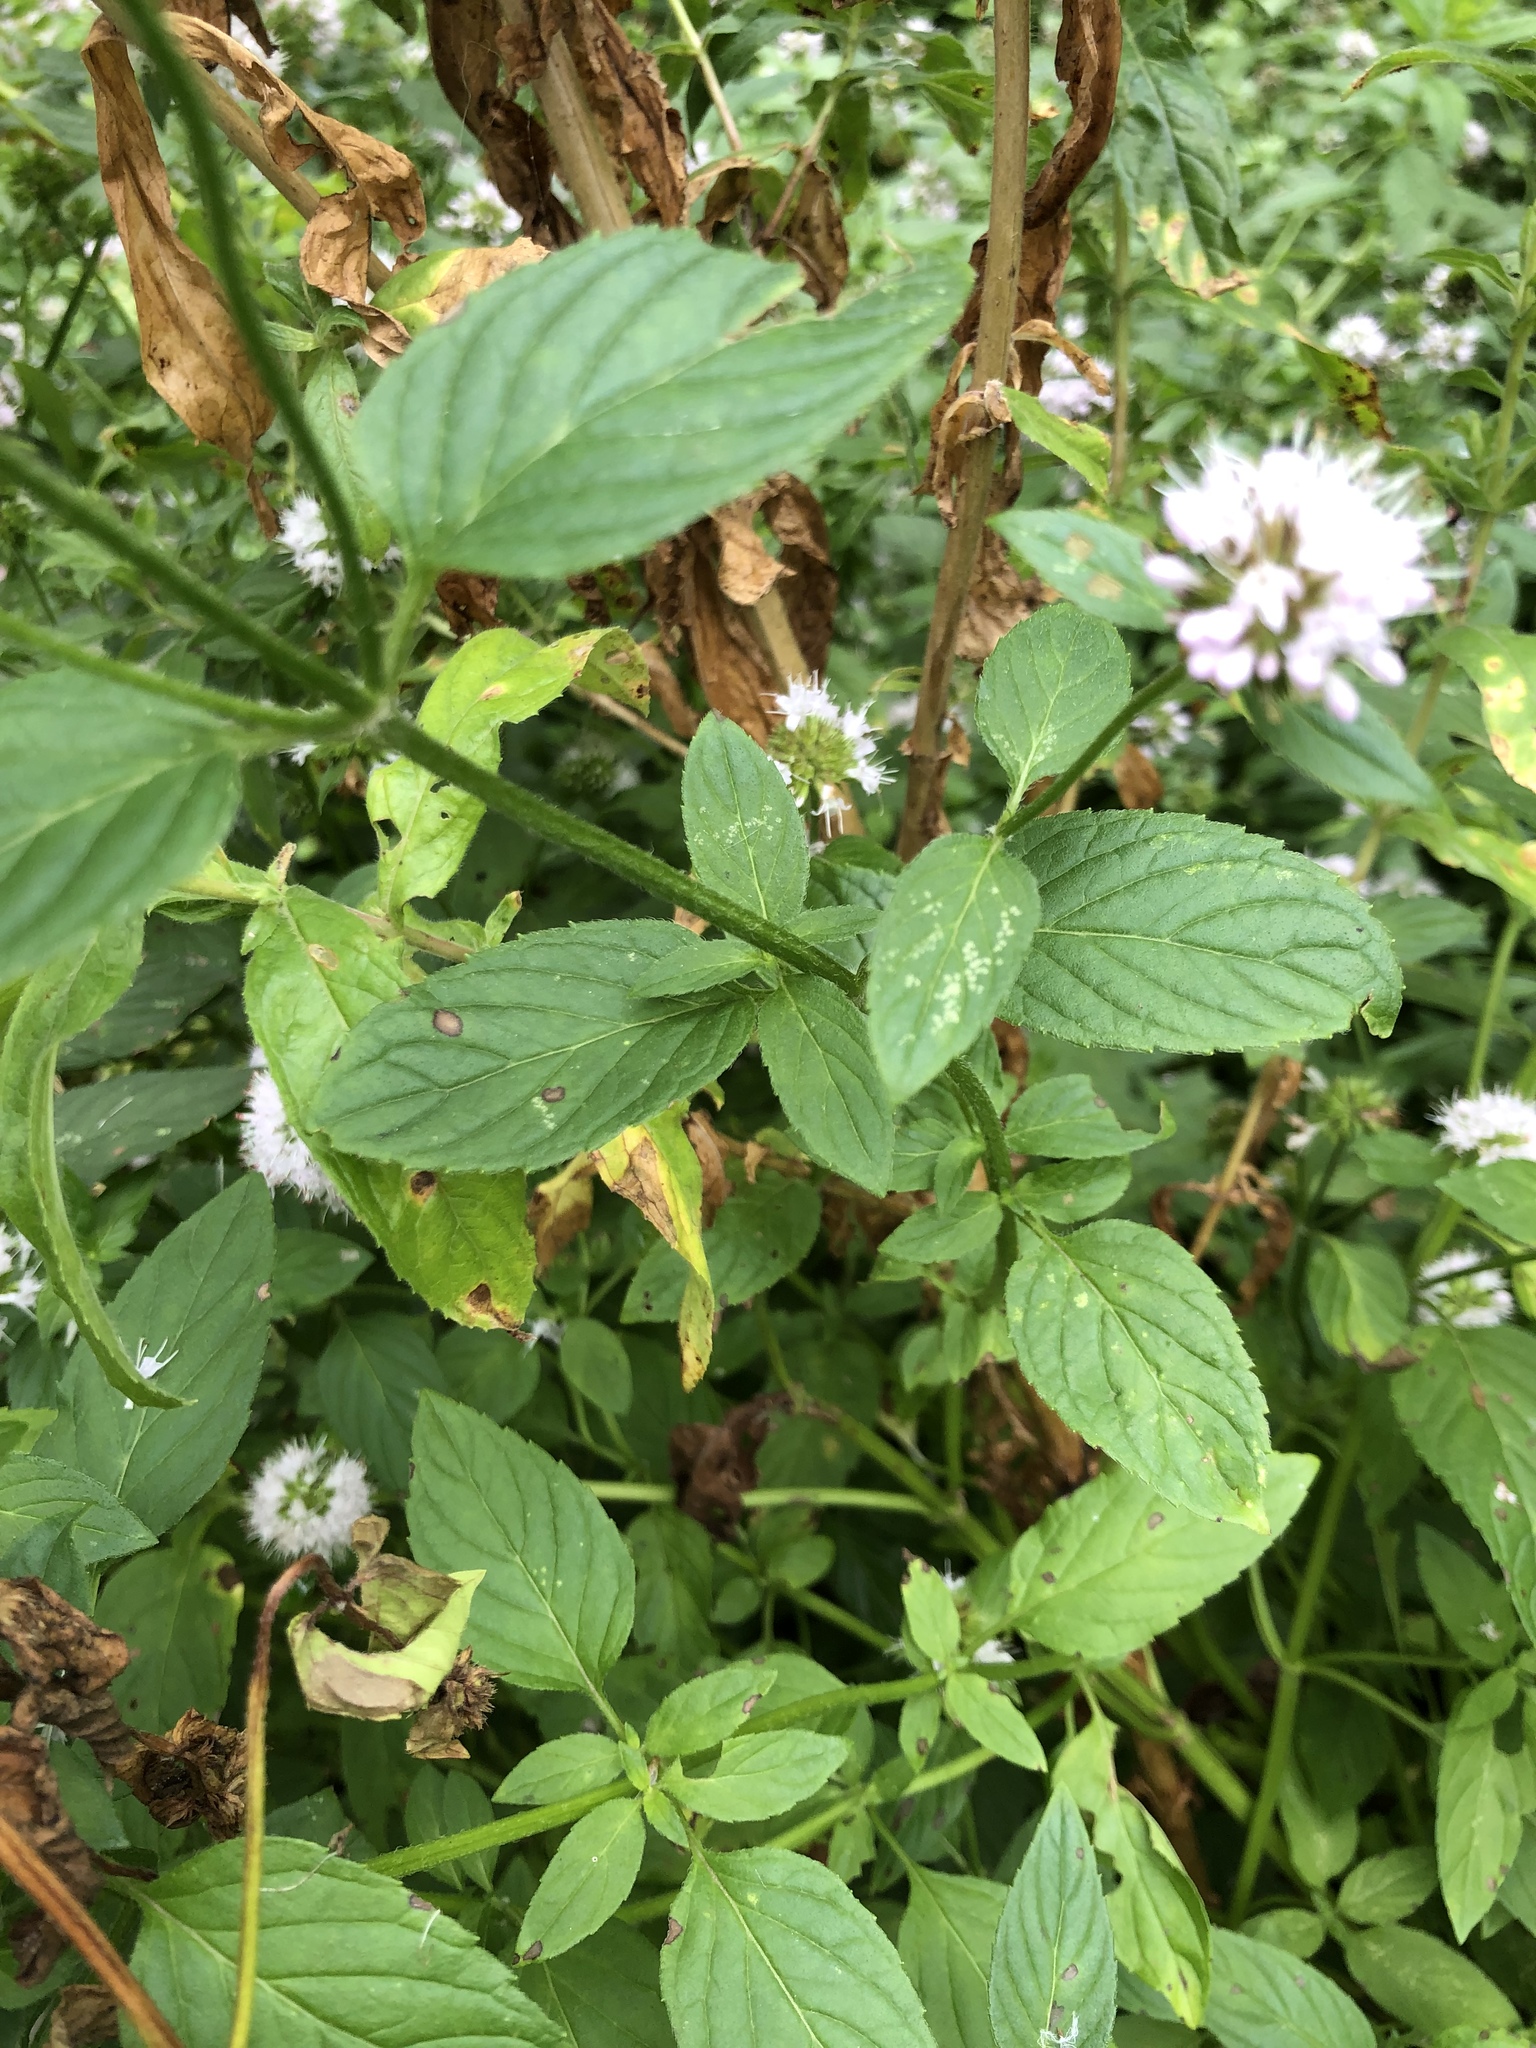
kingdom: Plantae
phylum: Tracheophyta
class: Magnoliopsida
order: Lamiales
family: Lamiaceae
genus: Mentha
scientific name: Mentha aquatica
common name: Water mint
